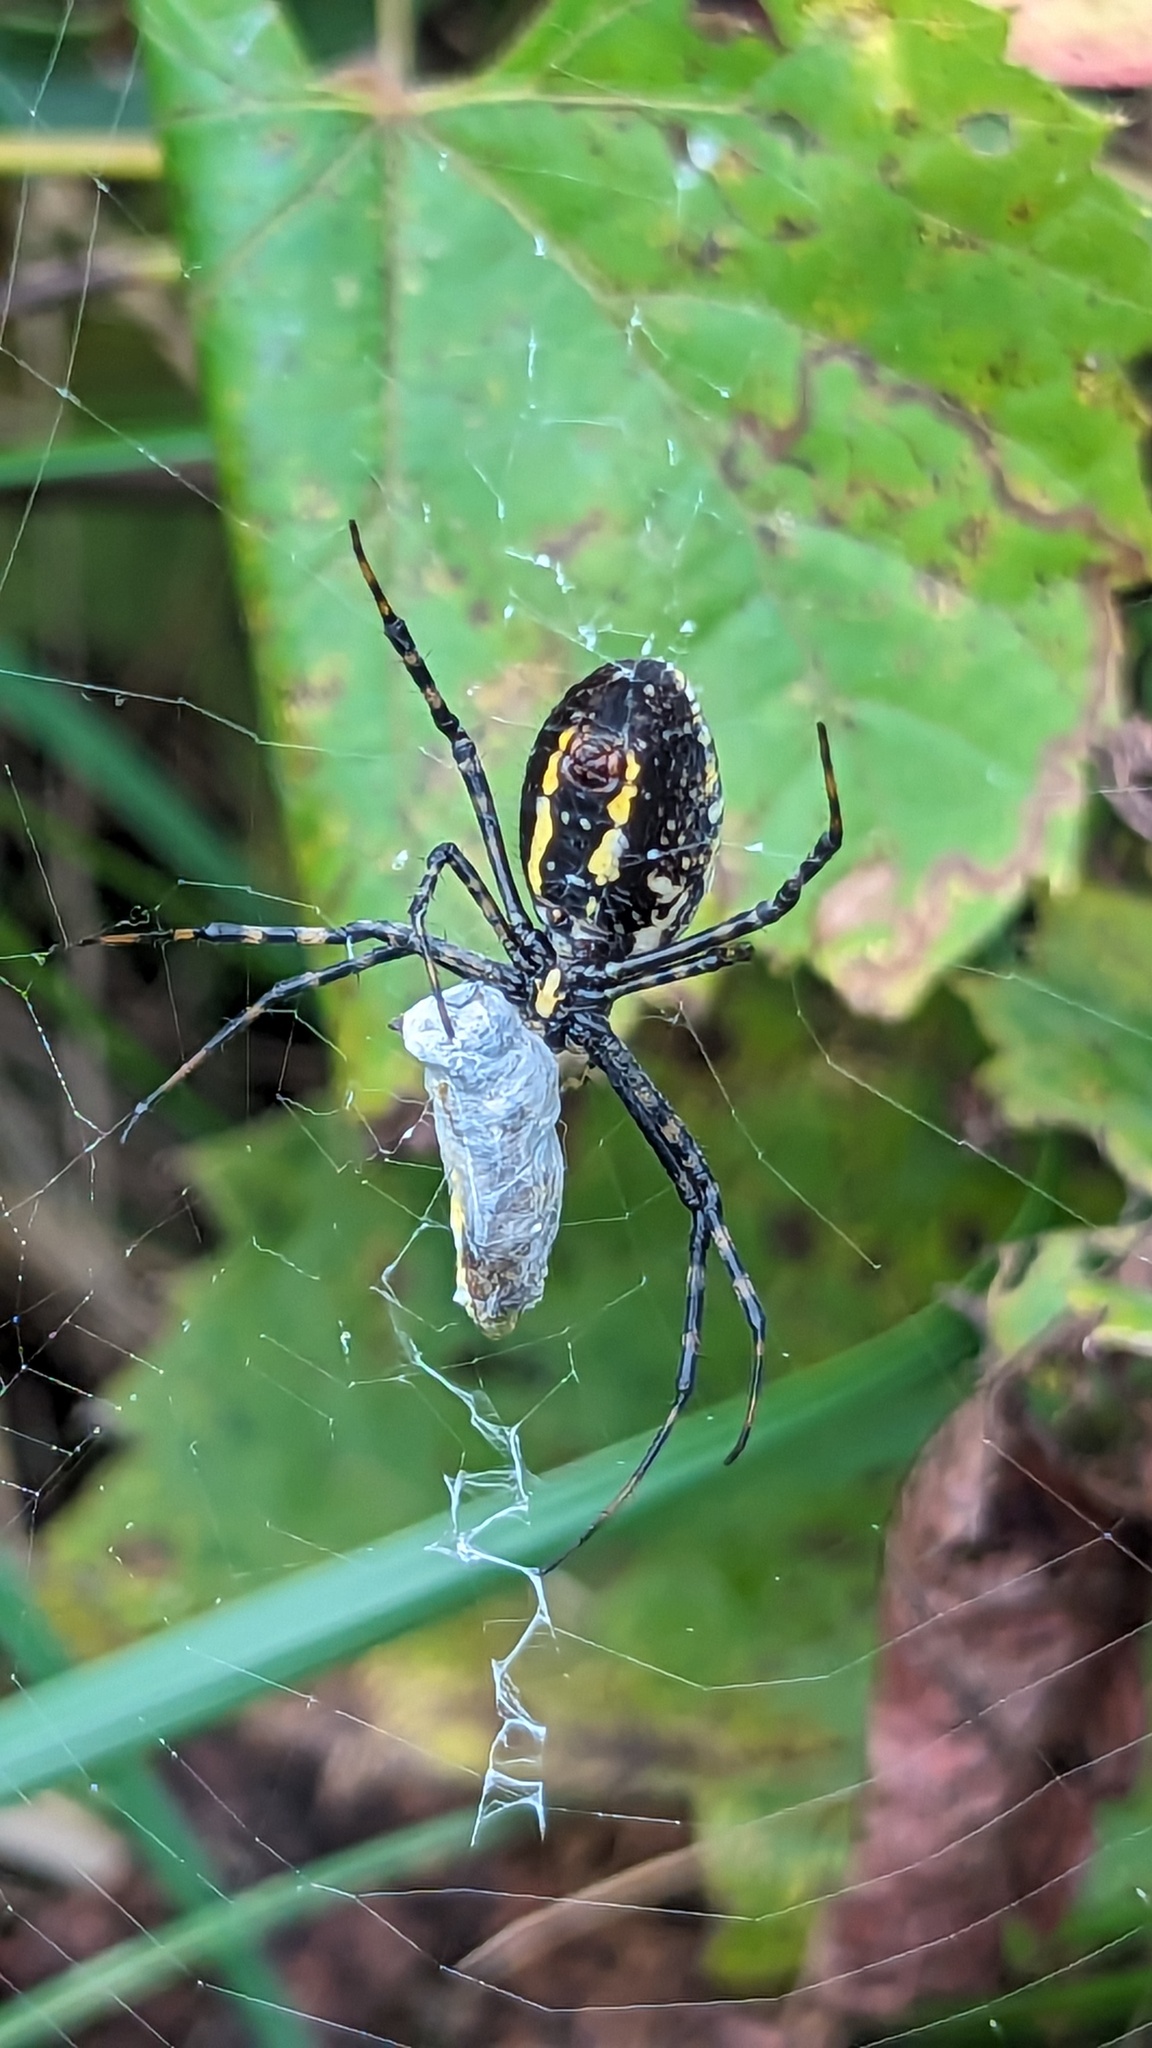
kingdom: Animalia
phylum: Arthropoda
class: Arachnida
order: Araneae
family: Araneidae
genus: Argiope
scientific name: Argiope trifasciata
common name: Banded garden spider
